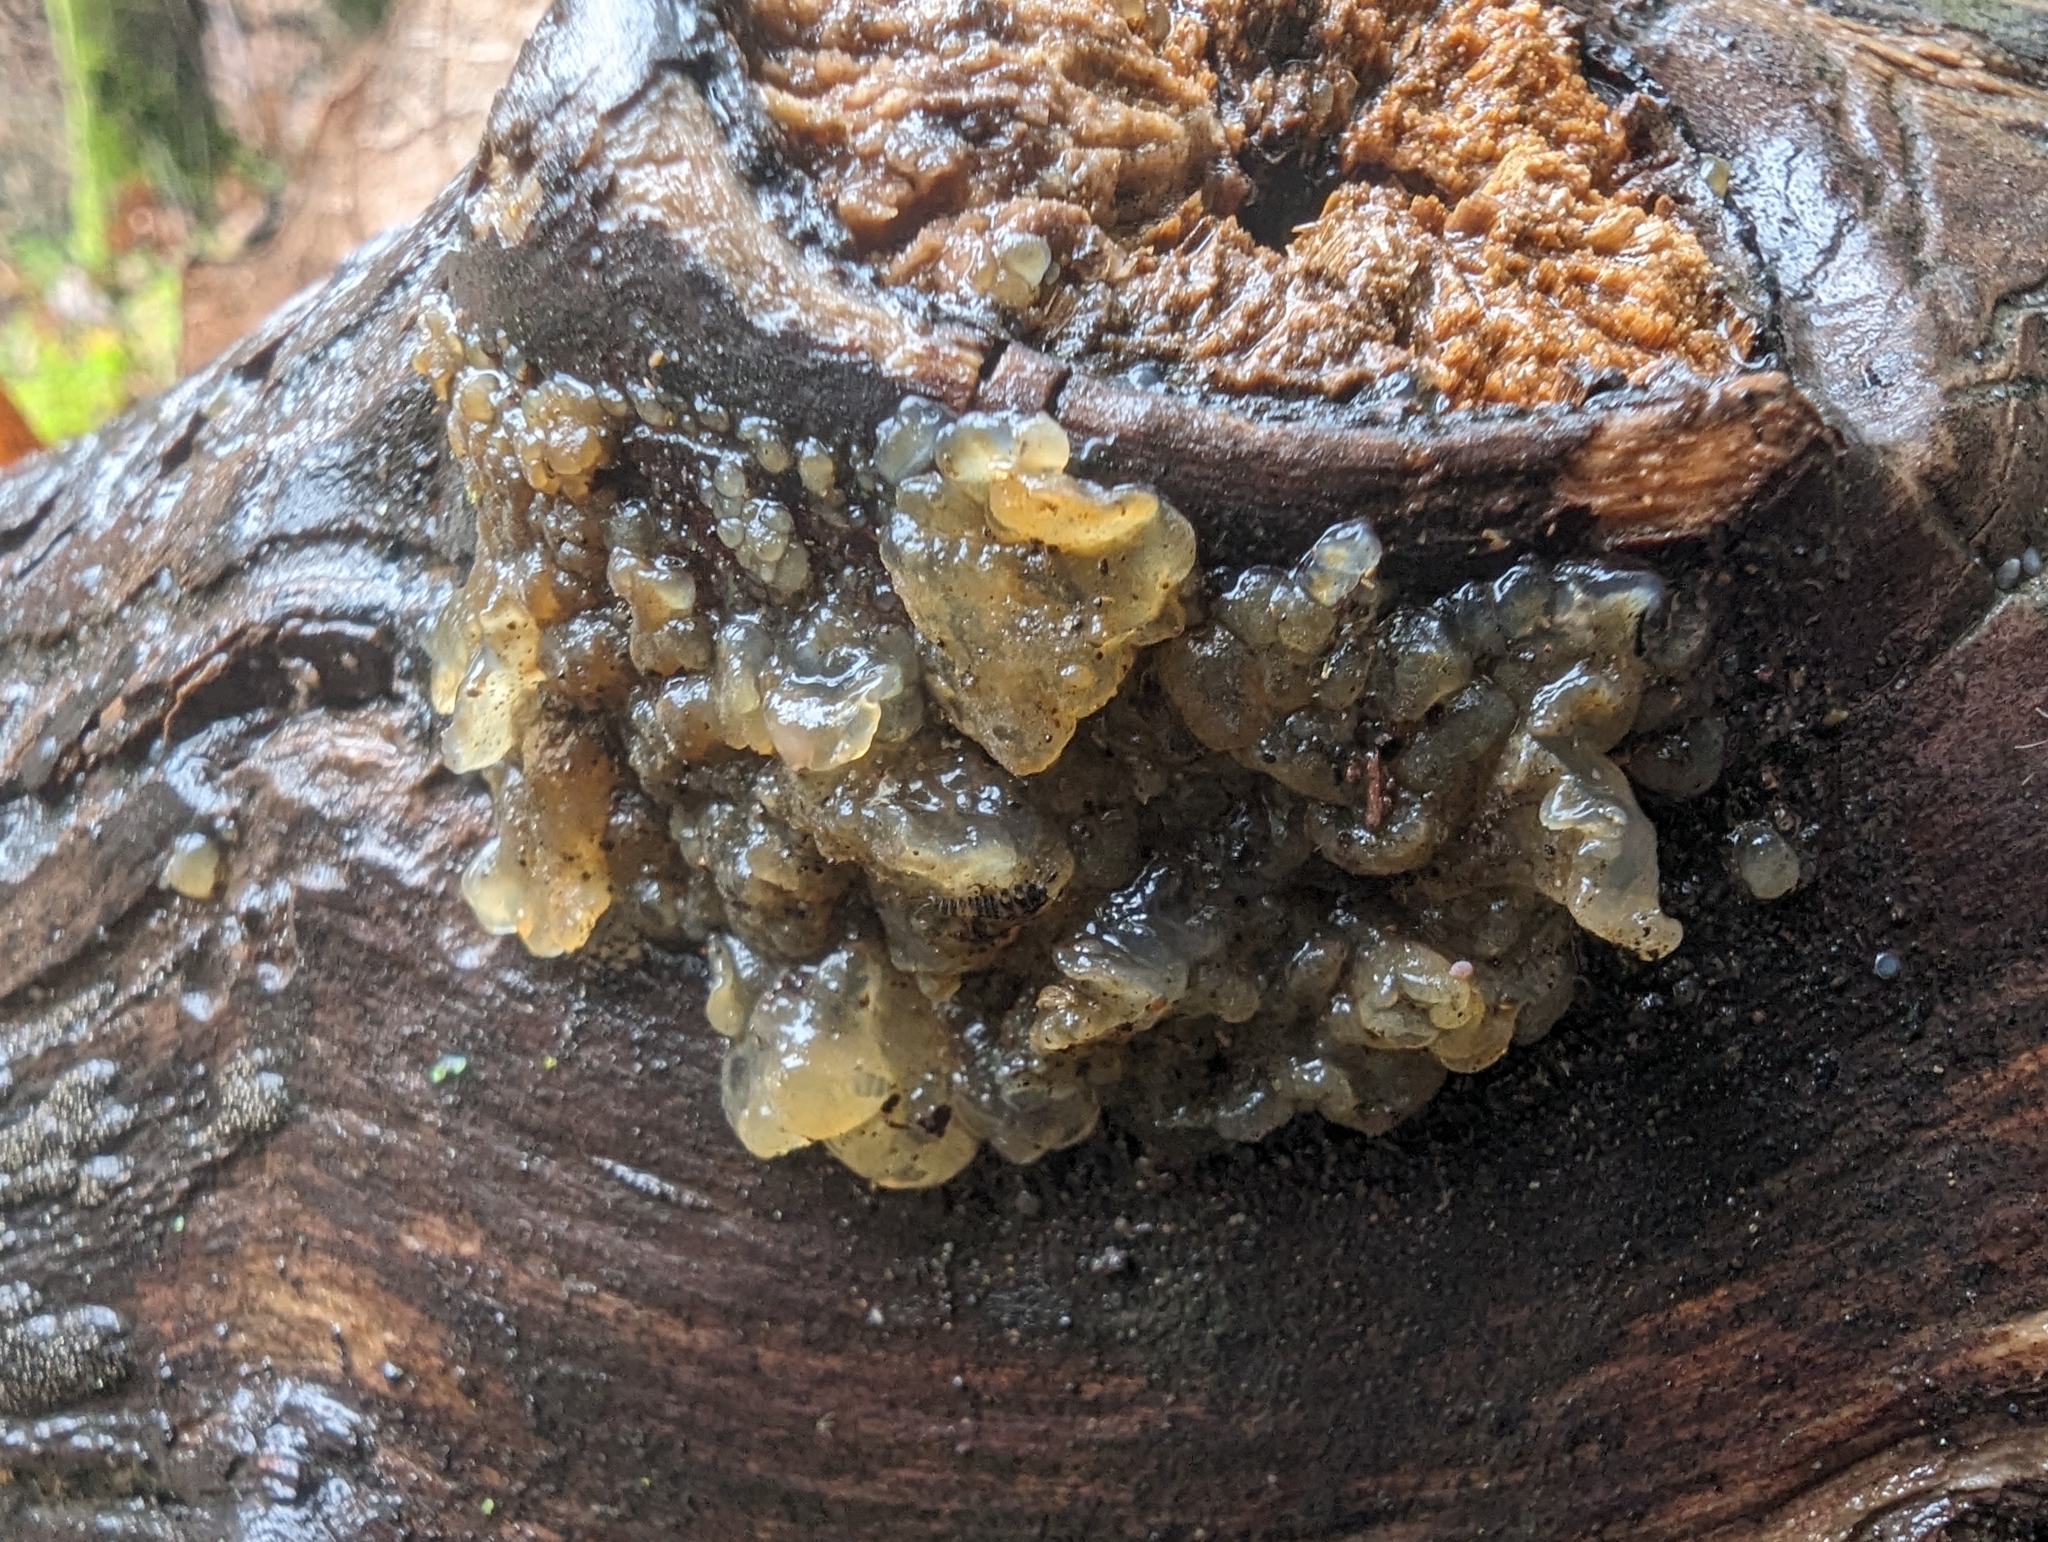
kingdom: Fungi
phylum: Basidiomycota
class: Agaricomycetes
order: Auriculariales
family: Hyaloriaceae
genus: Myxarium
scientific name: Myxarium nucleatum
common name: Crystal brain fungus
